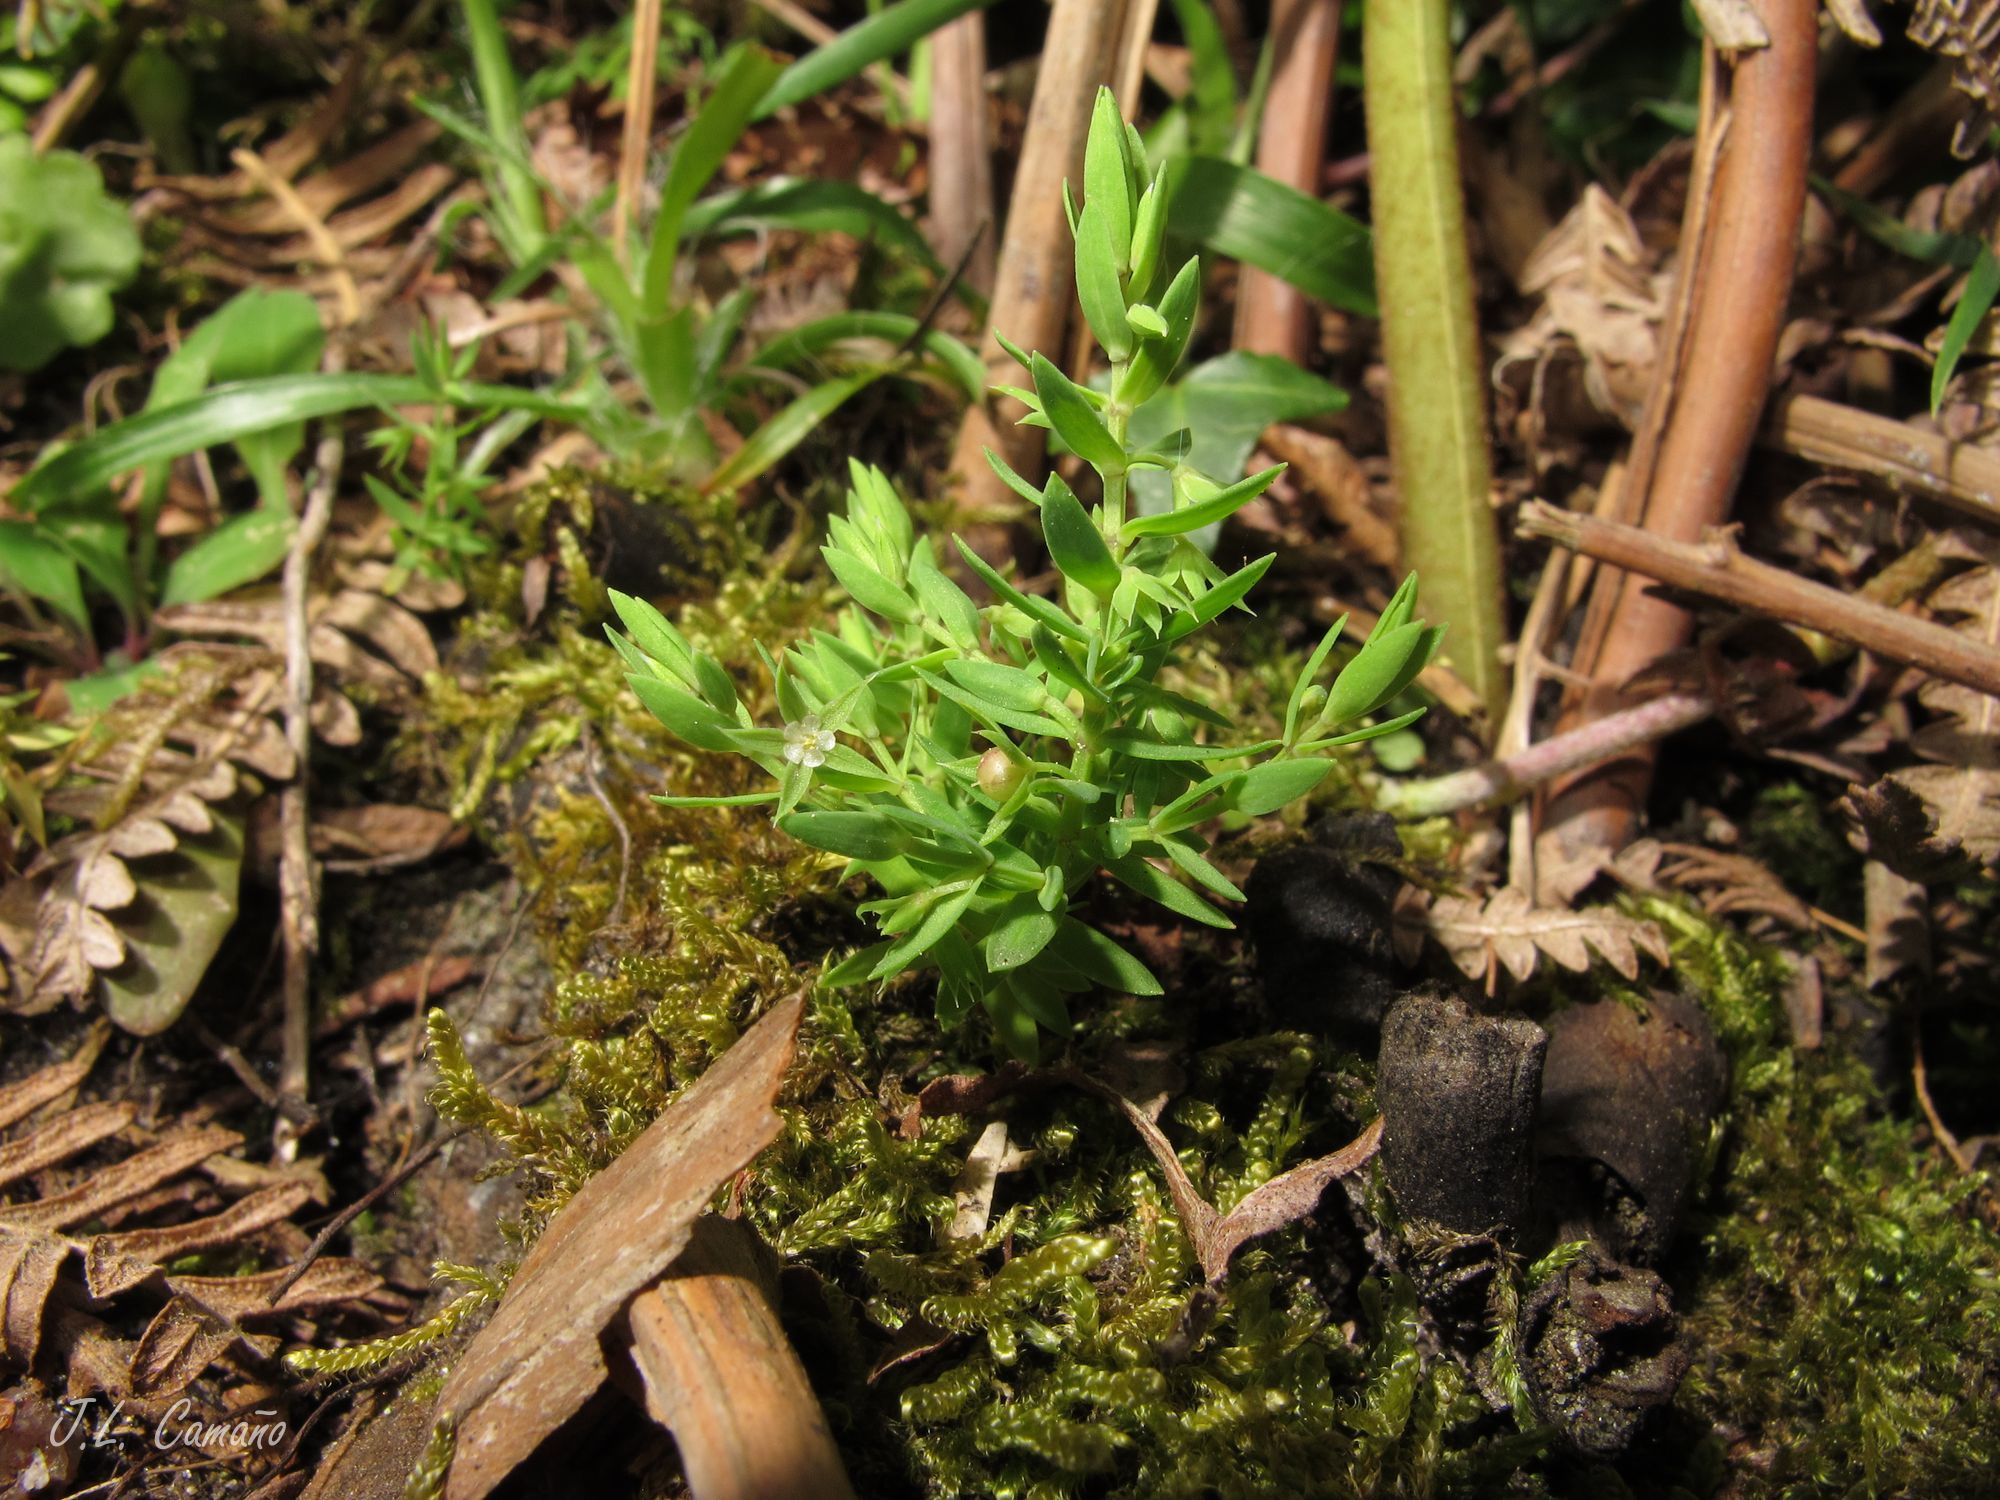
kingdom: Plantae
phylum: Tracheophyta
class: Magnoliopsida
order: Ericales
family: Primulaceae
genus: Lysimachia
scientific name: Lysimachia linum-stellatum
